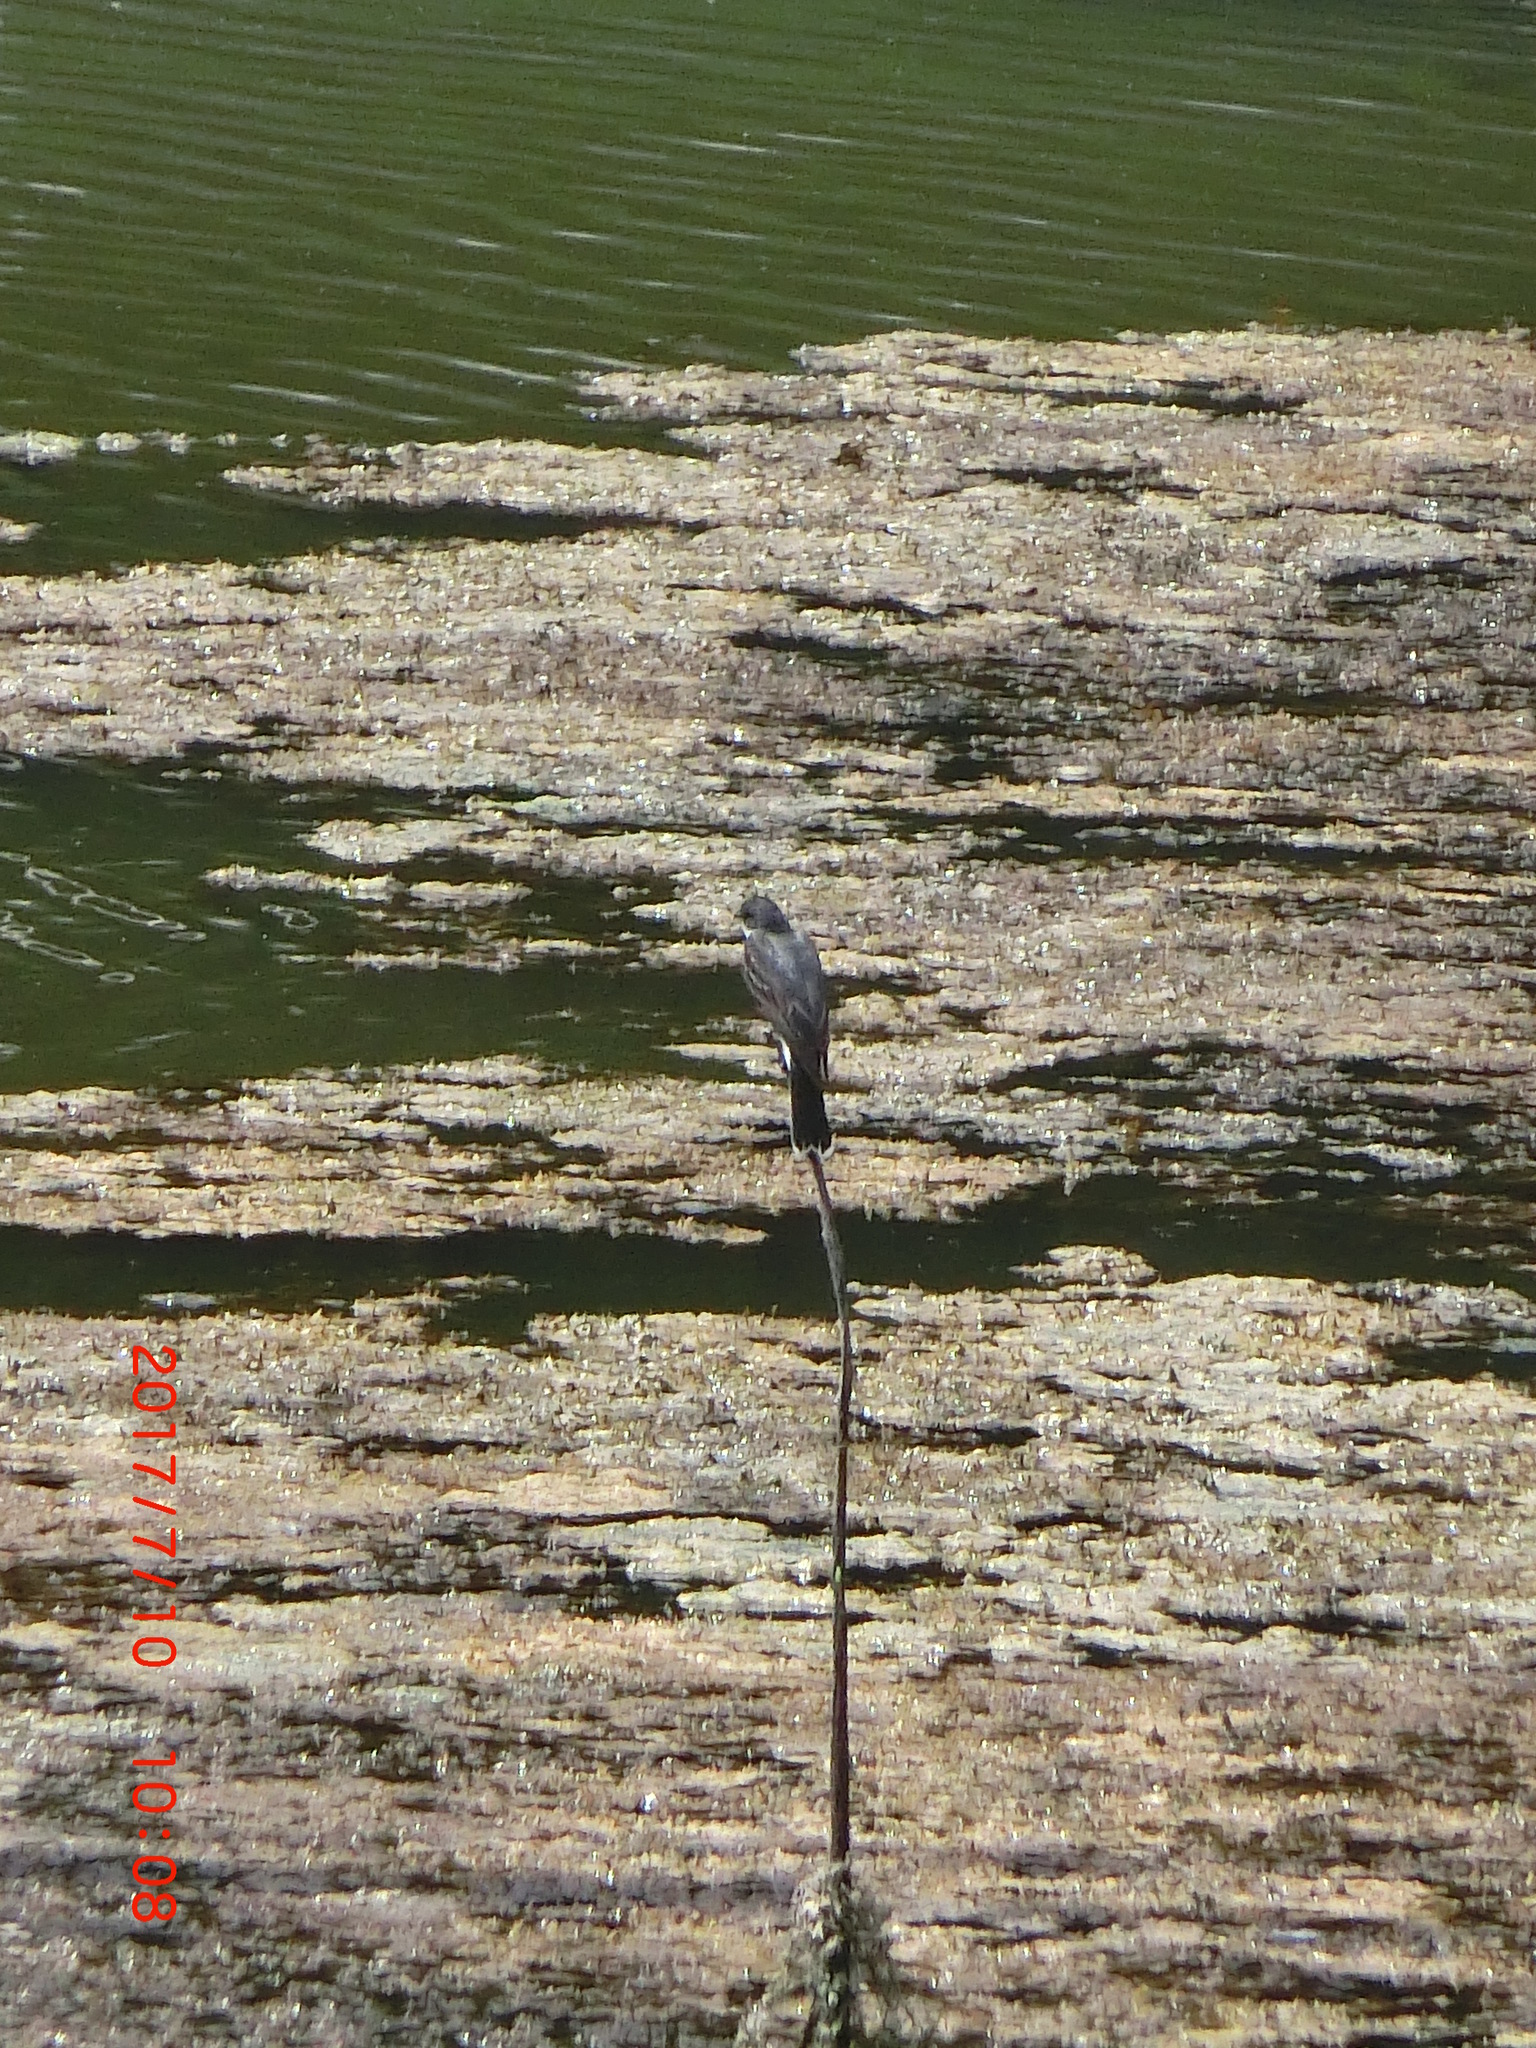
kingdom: Animalia
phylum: Chordata
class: Aves
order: Passeriformes
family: Tyrannidae
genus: Tyrannus
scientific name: Tyrannus tyrannus
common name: Eastern kingbird
